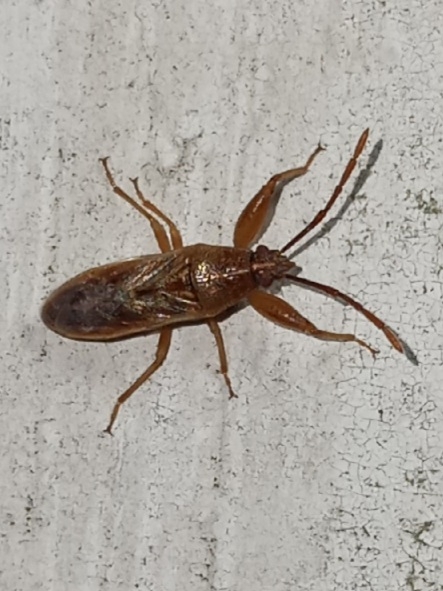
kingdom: Animalia
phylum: Arthropoda
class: Insecta
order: Hemiptera
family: Pachygronthidae
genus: Oedancala
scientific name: Oedancala crassimana
